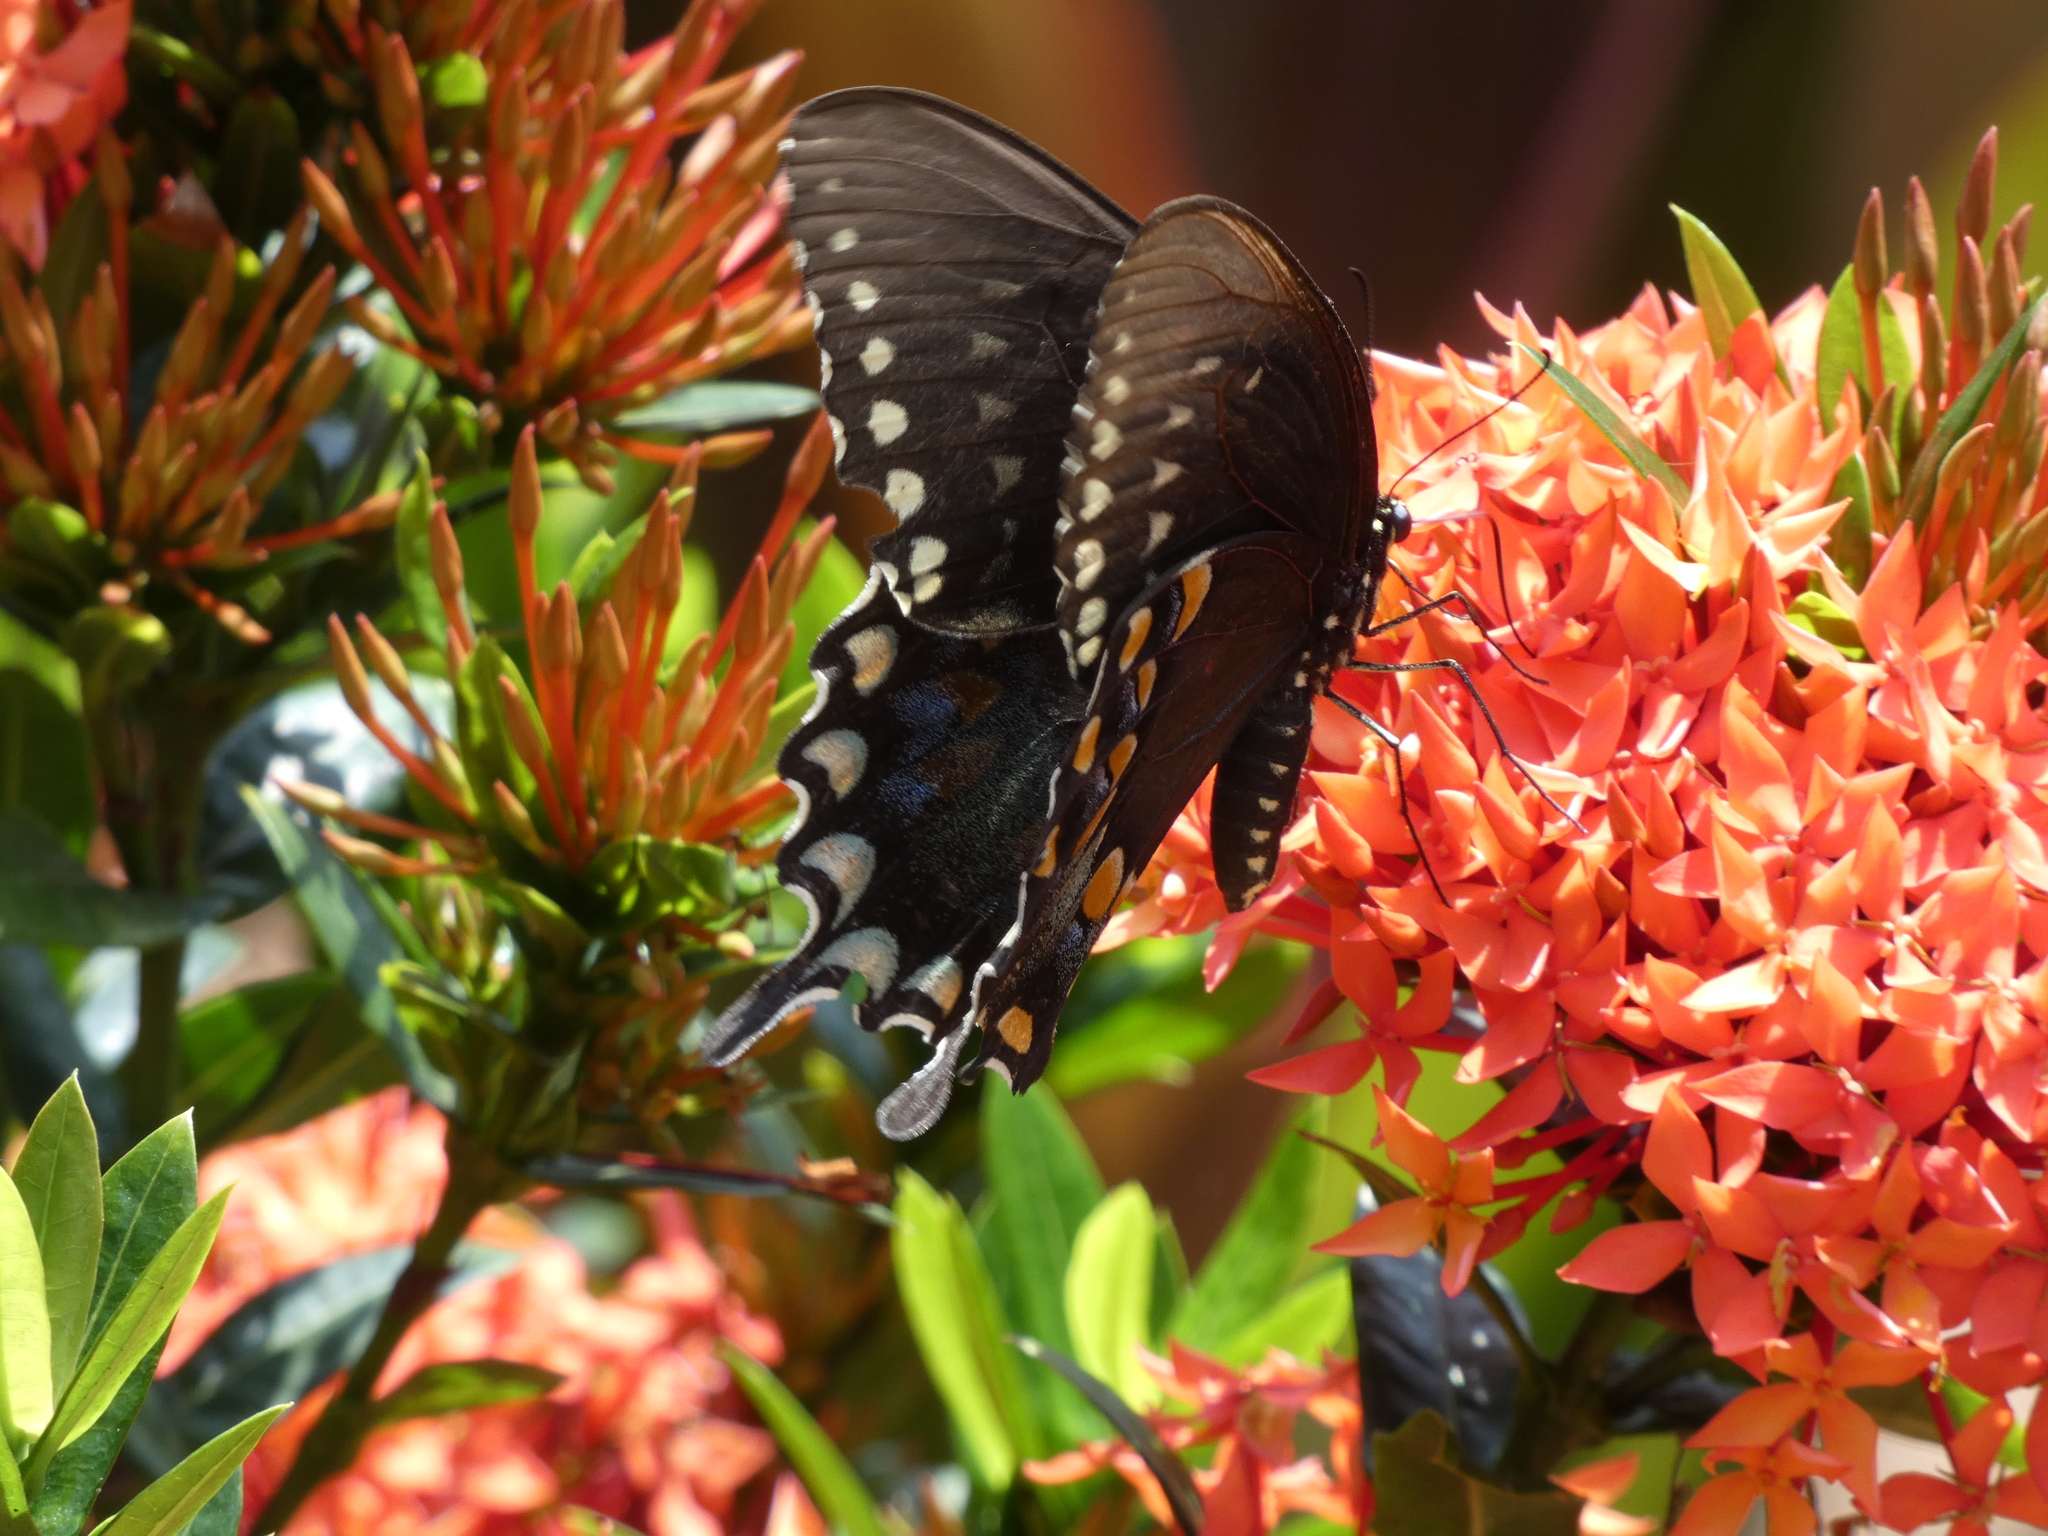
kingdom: Animalia
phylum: Arthropoda
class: Insecta
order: Lepidoptera
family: Papilionidae
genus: Papilio
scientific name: Papilio troilus
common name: Spicebush swallowtail
